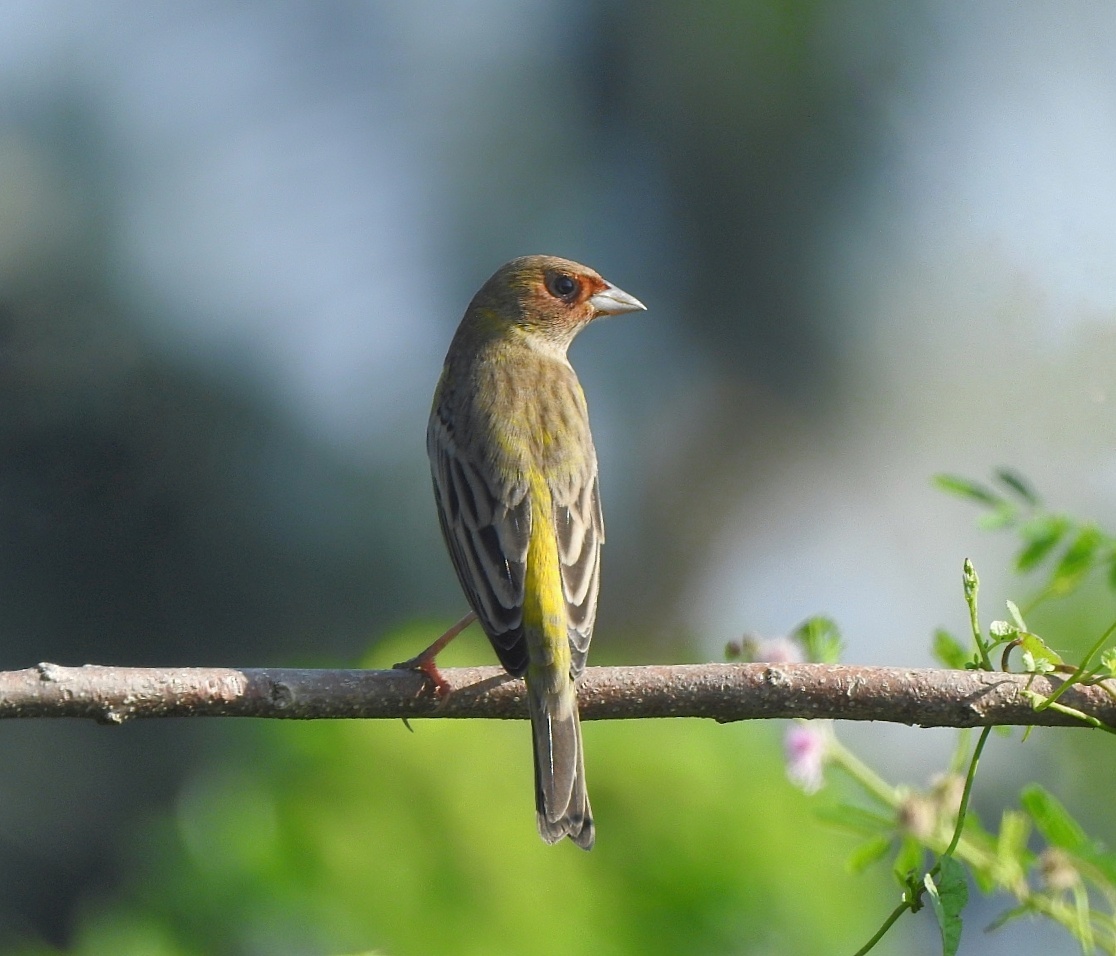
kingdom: Animalia
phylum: Chordata
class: Aves
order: Passeriformes
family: Emberizidae
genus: Emberiza
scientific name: Emberiza bruniceps
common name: Red-headed bunting
